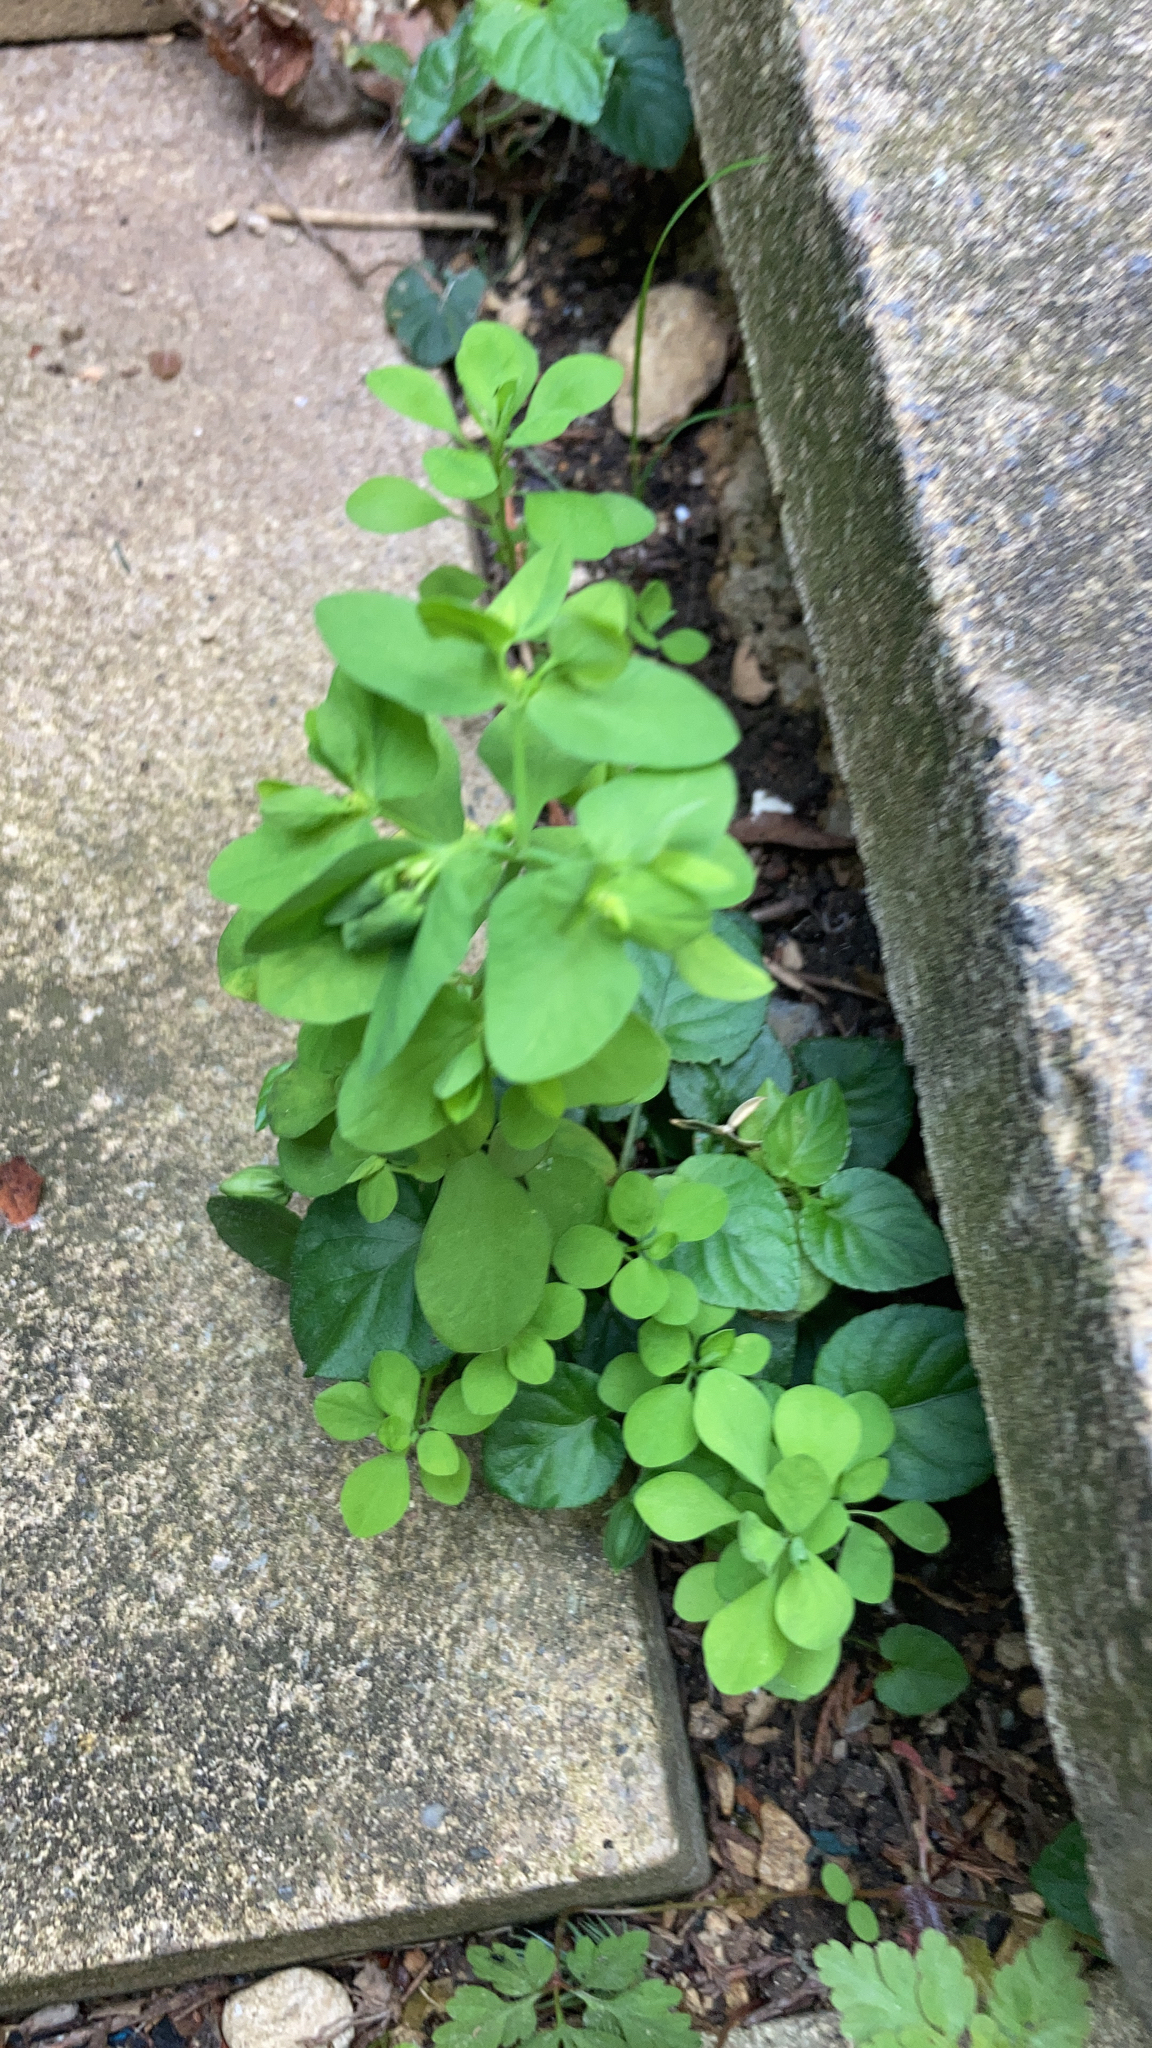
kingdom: Plantae
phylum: Tracheophyta
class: Magnoliopsida
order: Malpighiales
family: Euphorbiaceae
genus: Euphorbia
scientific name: Euphorbia peplus
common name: Petty spurge
